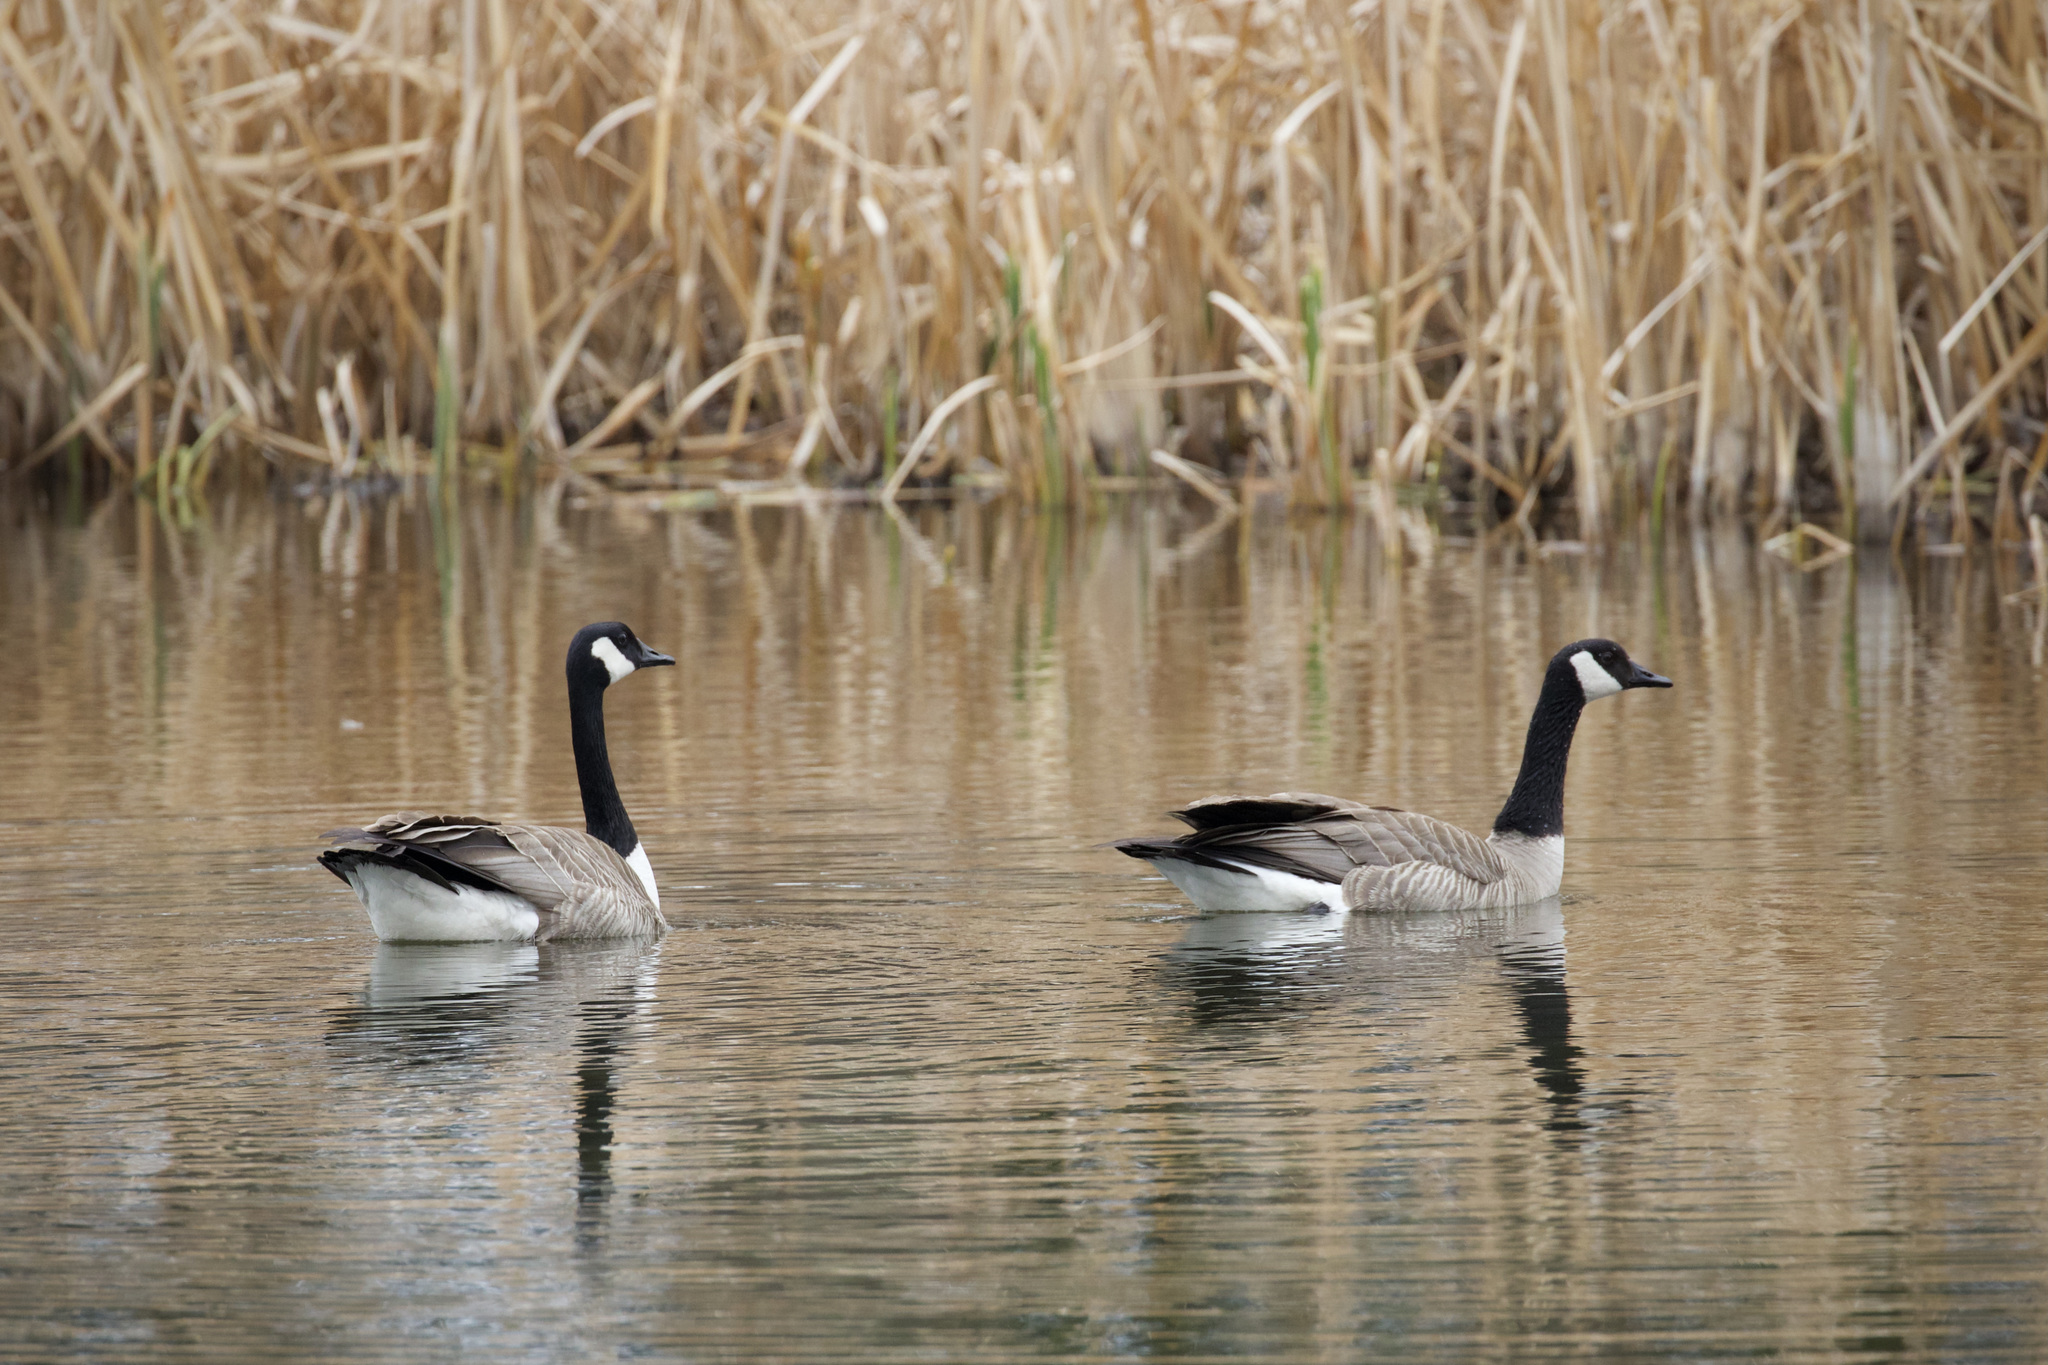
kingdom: Animalia
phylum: Chordata
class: Aves
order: Anseriformes
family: Anatidae
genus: Branta
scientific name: Branta canadensis
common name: Canada goose
